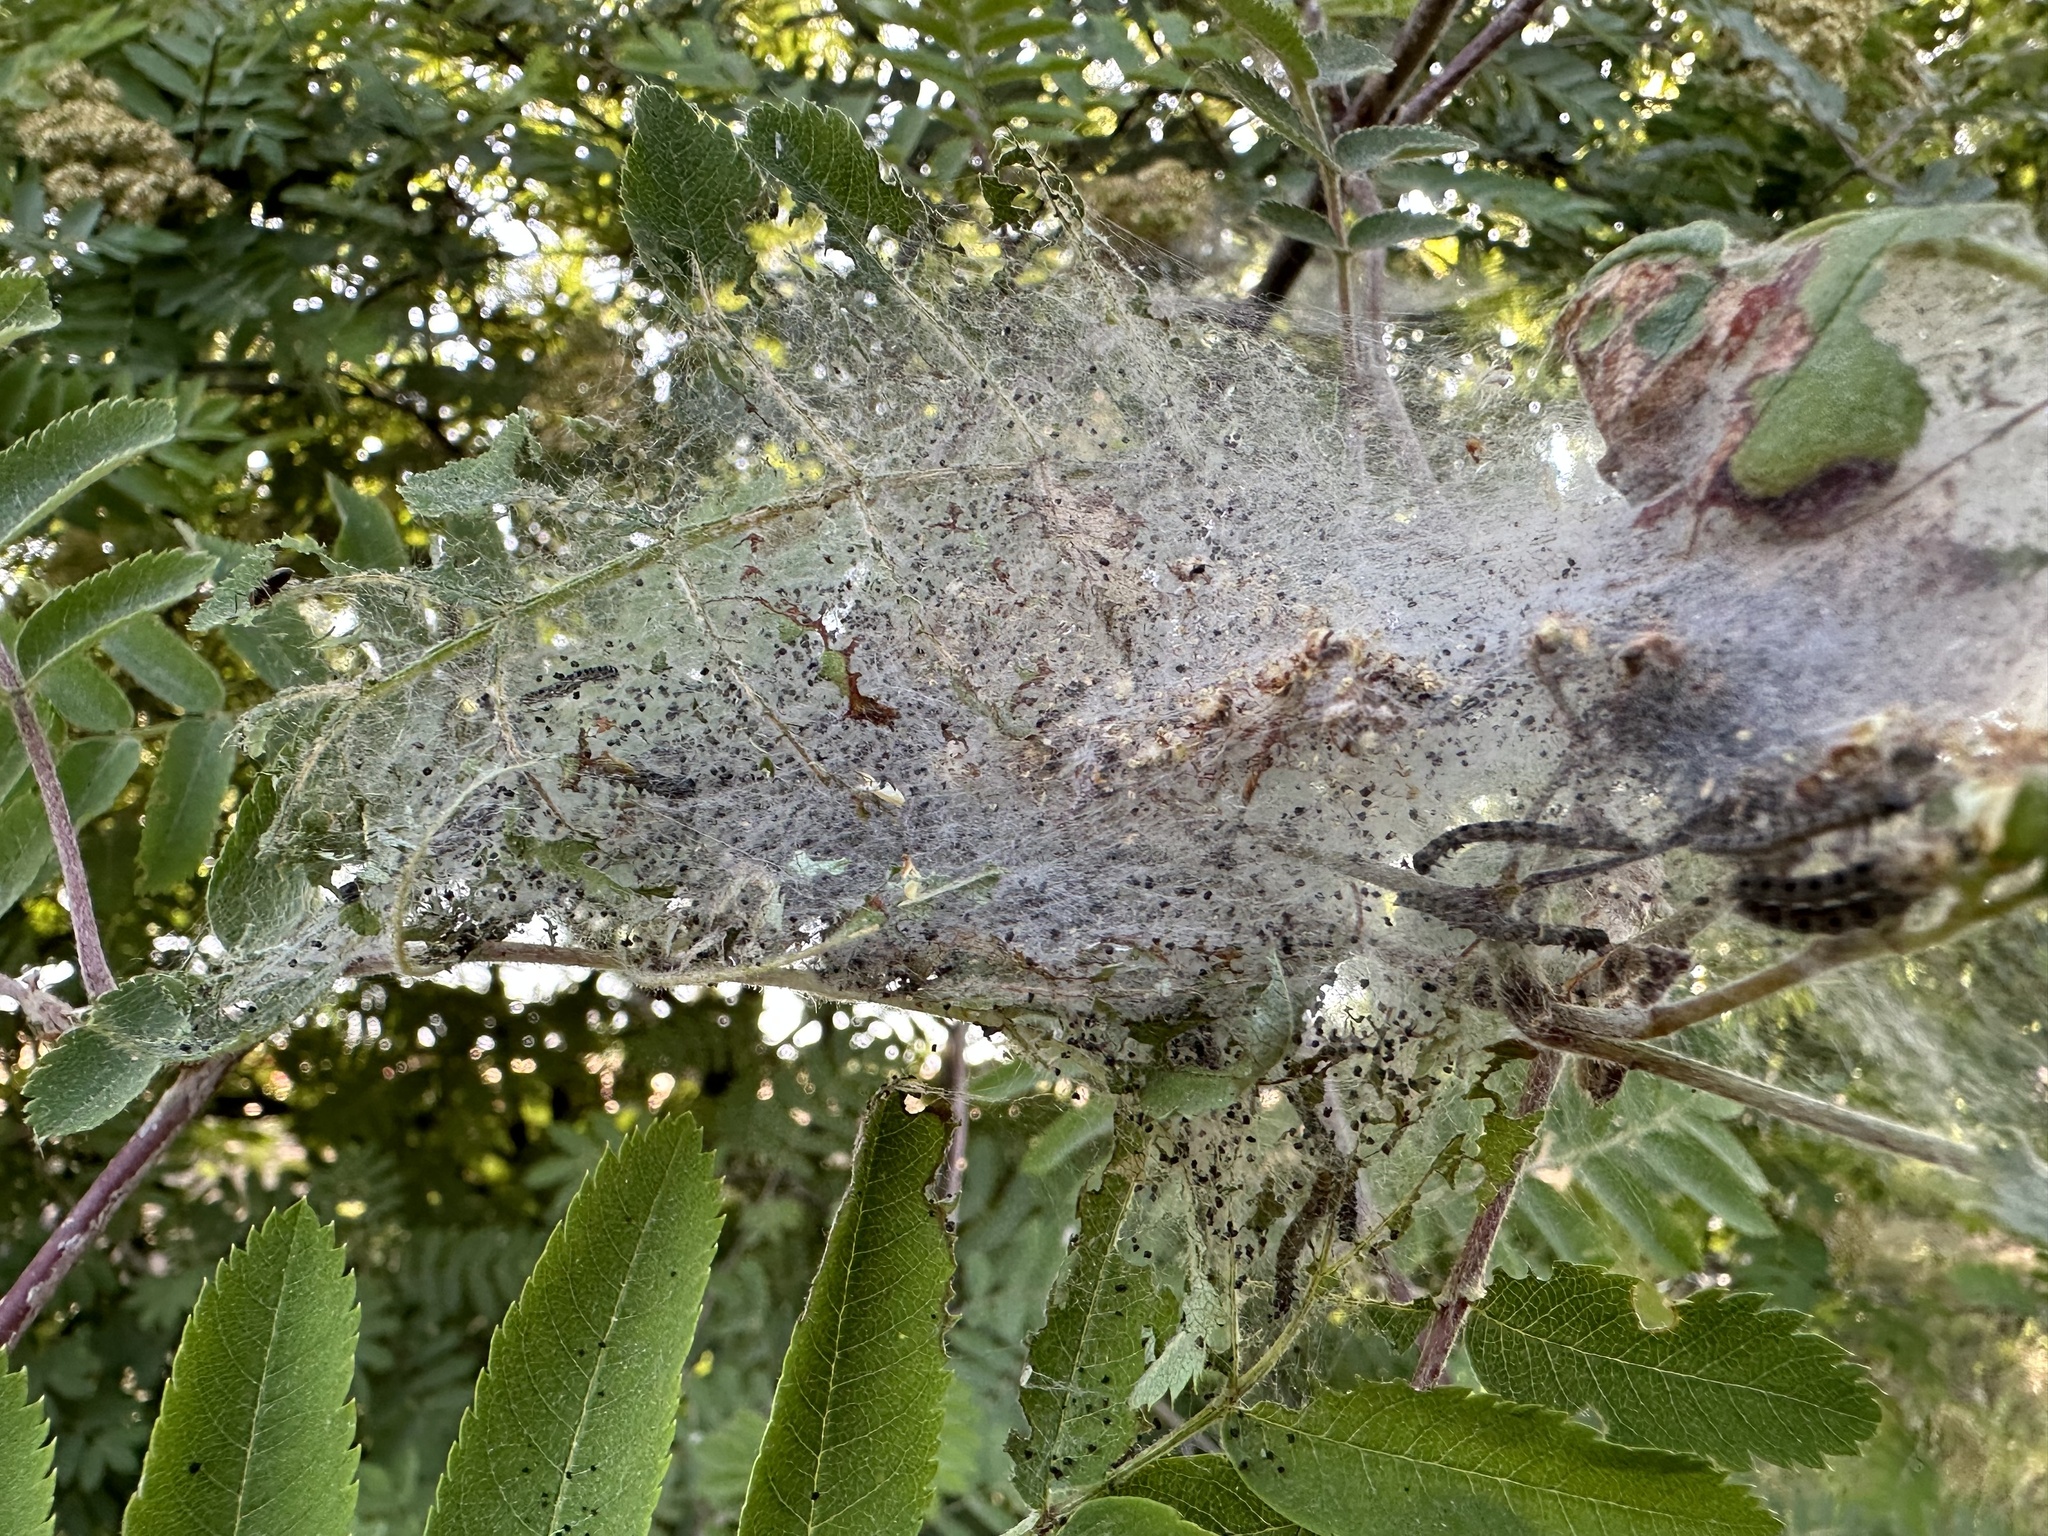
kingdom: Animalia
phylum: Arthropoda
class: Insecta
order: Lepidoptera
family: Yponomeutidae
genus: Yponomeuta
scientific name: Yponomeuta padella
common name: Orchard ermine
